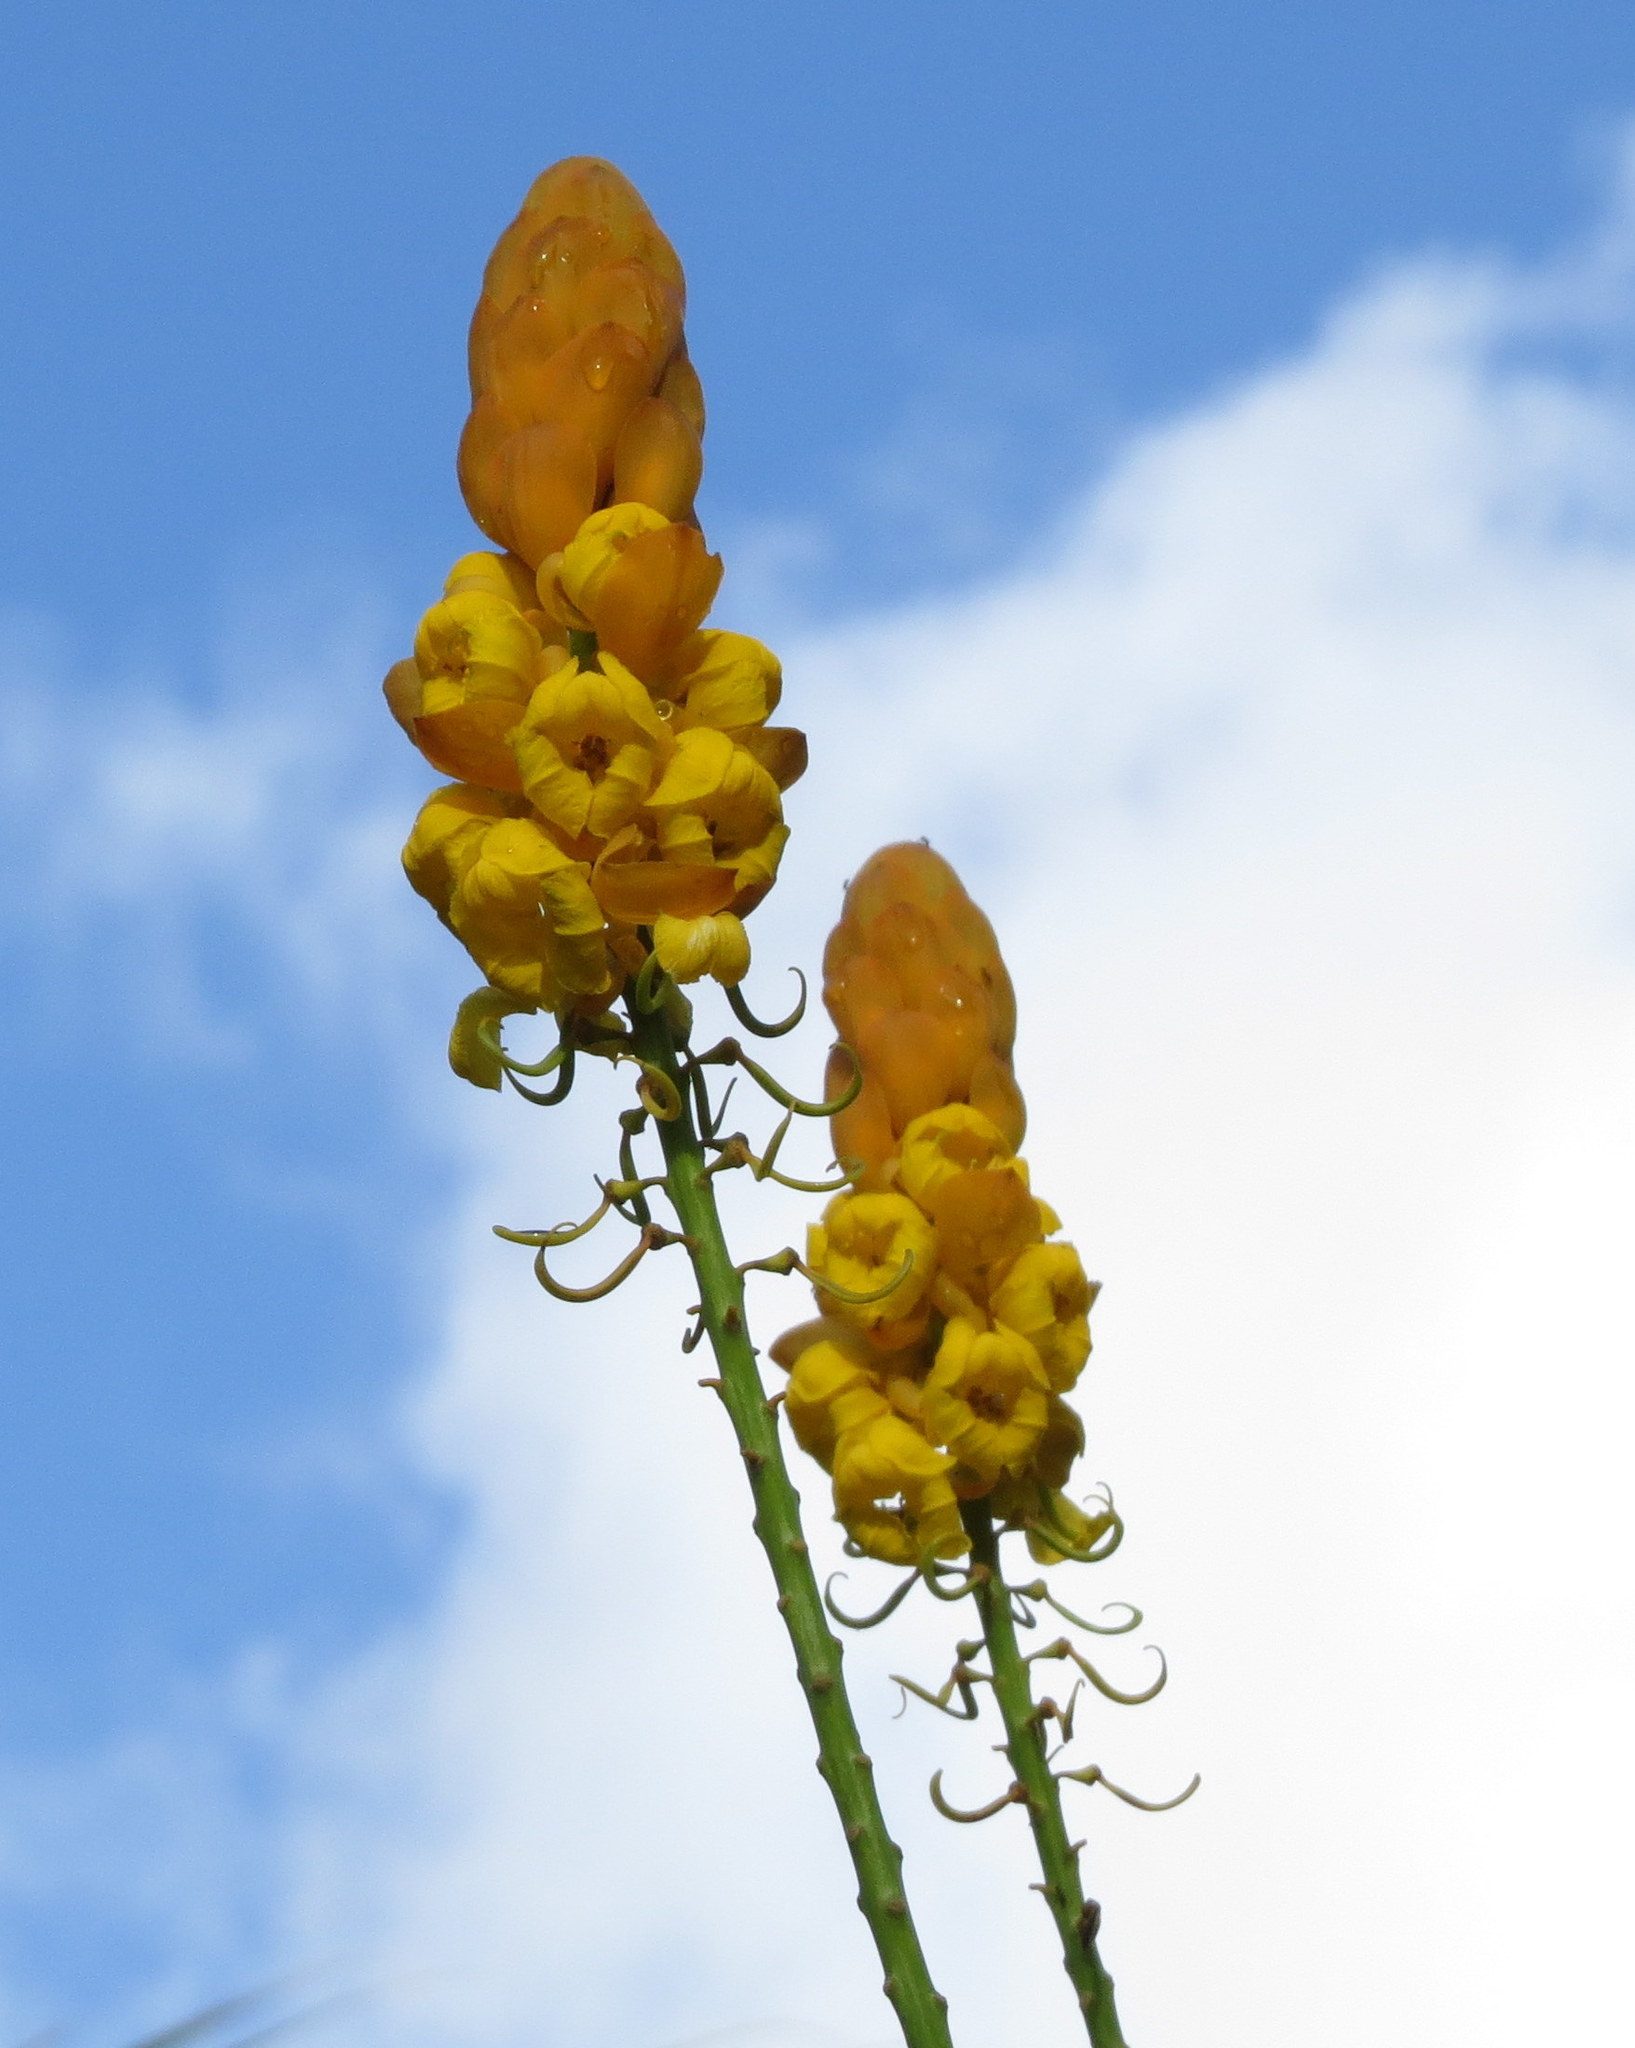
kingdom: Plantae
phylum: Tracheophyta
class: Magnoliopsida
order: Fabales
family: Fabaceae
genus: Senna
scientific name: Senna alata
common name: Emperor's candlesticks
